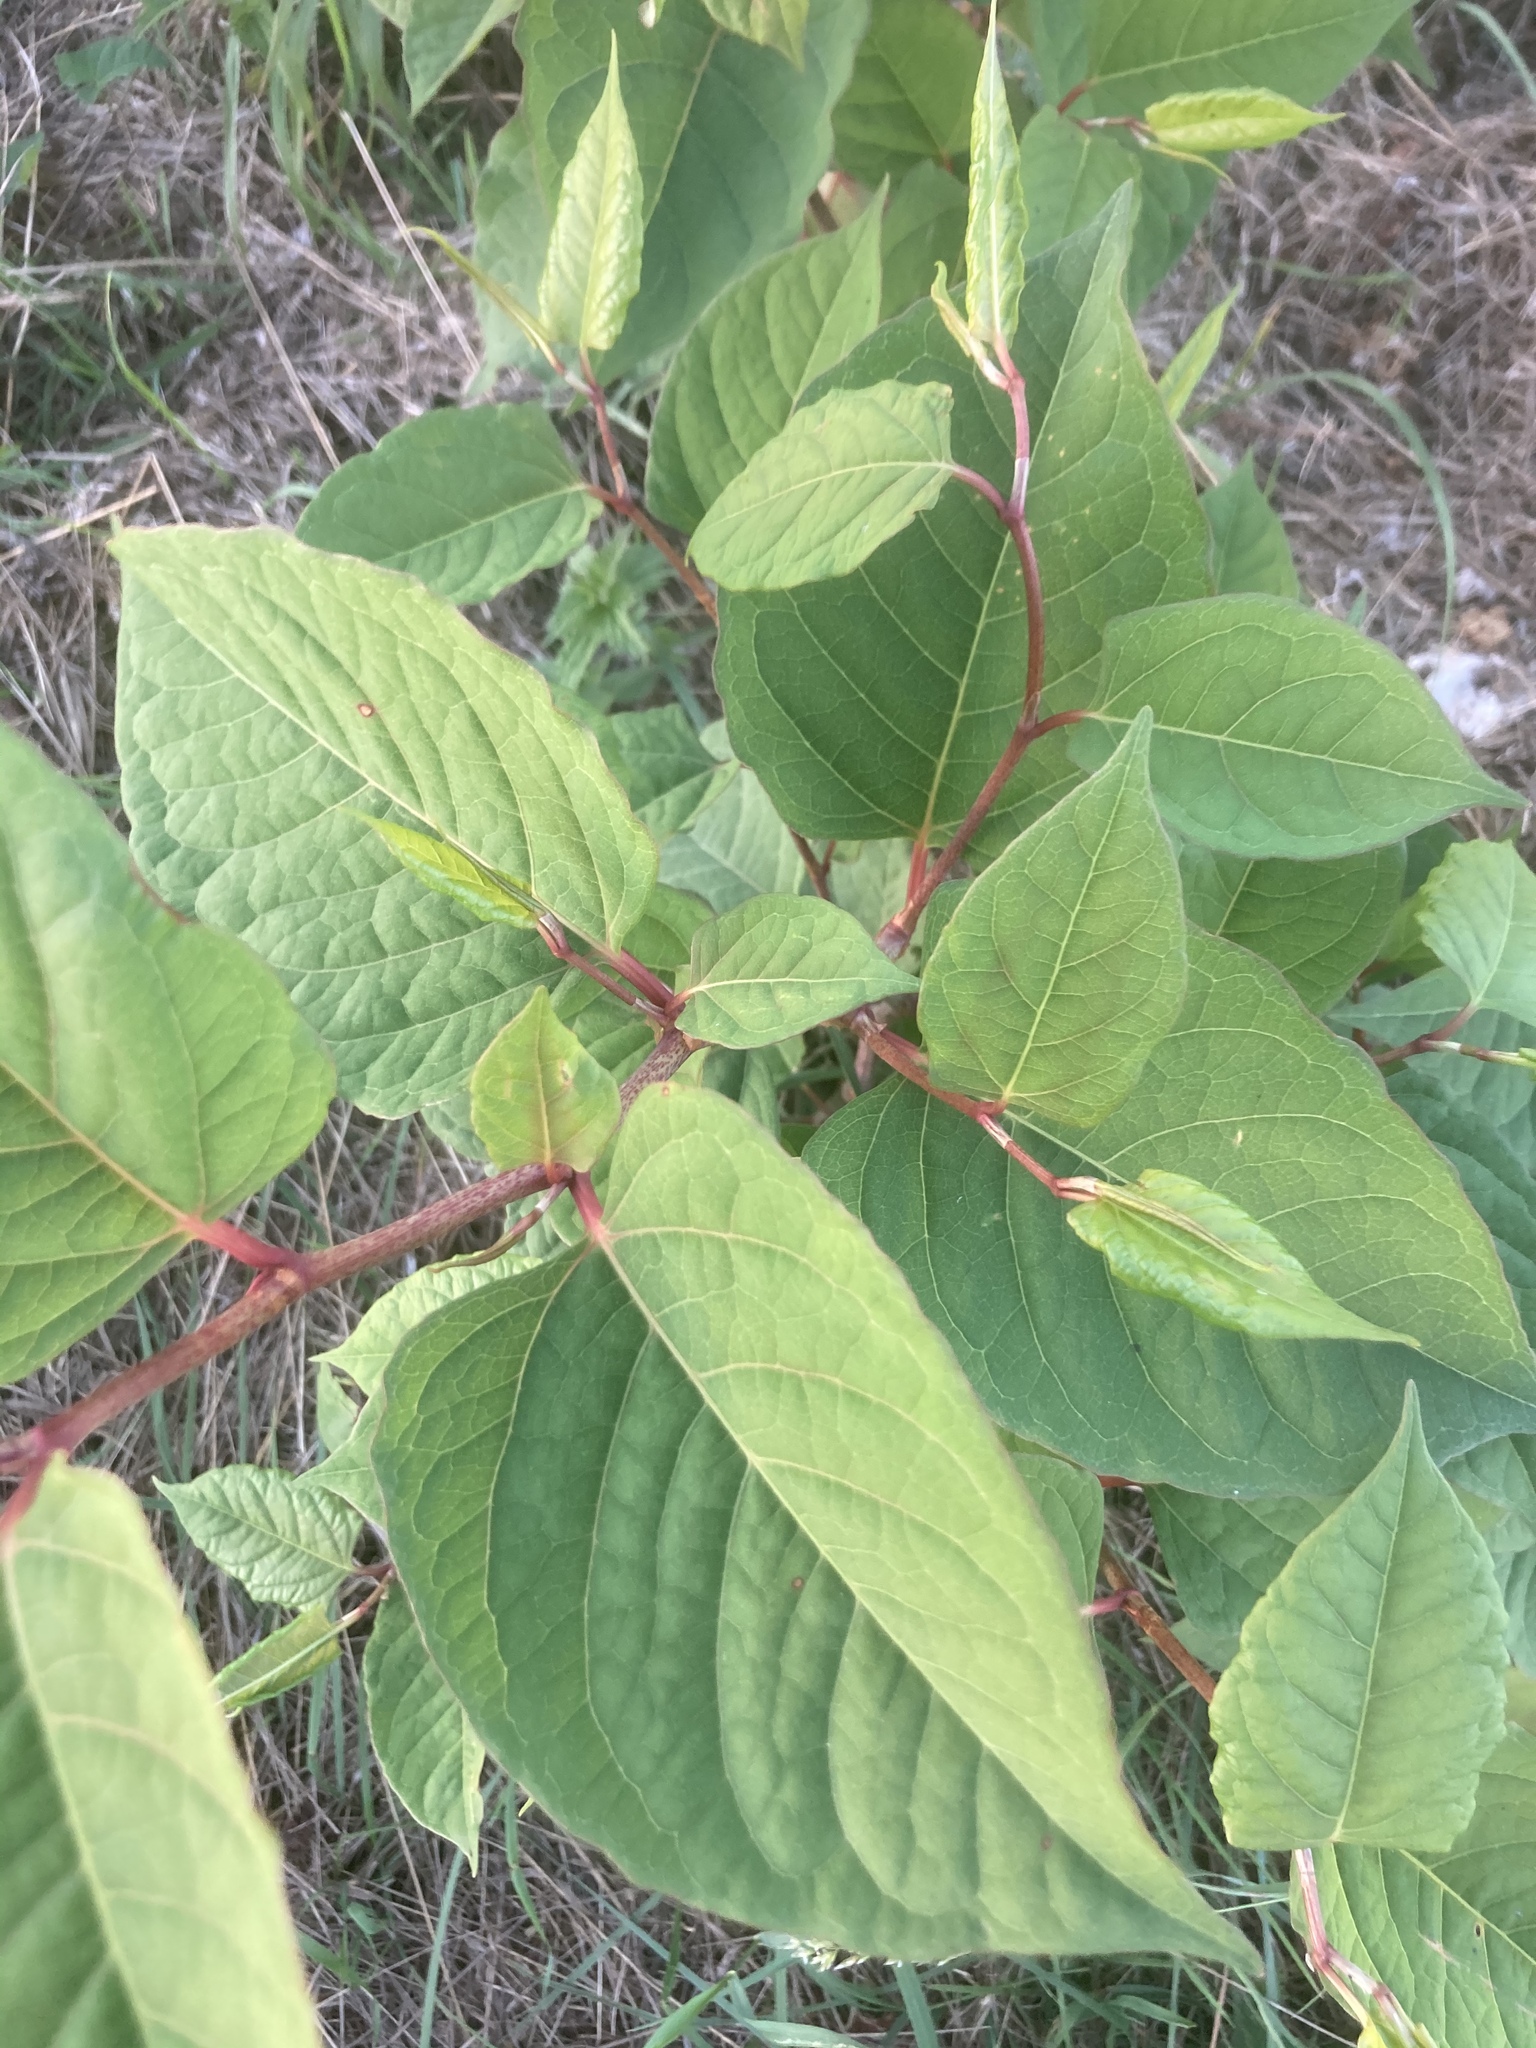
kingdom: Plantae
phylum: Tracheophyta
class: Magnoliopsida
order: Caryophyllales
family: Polygonaceae
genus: Reynoutria
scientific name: Reynoutria japonica
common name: Japanese knotweed
